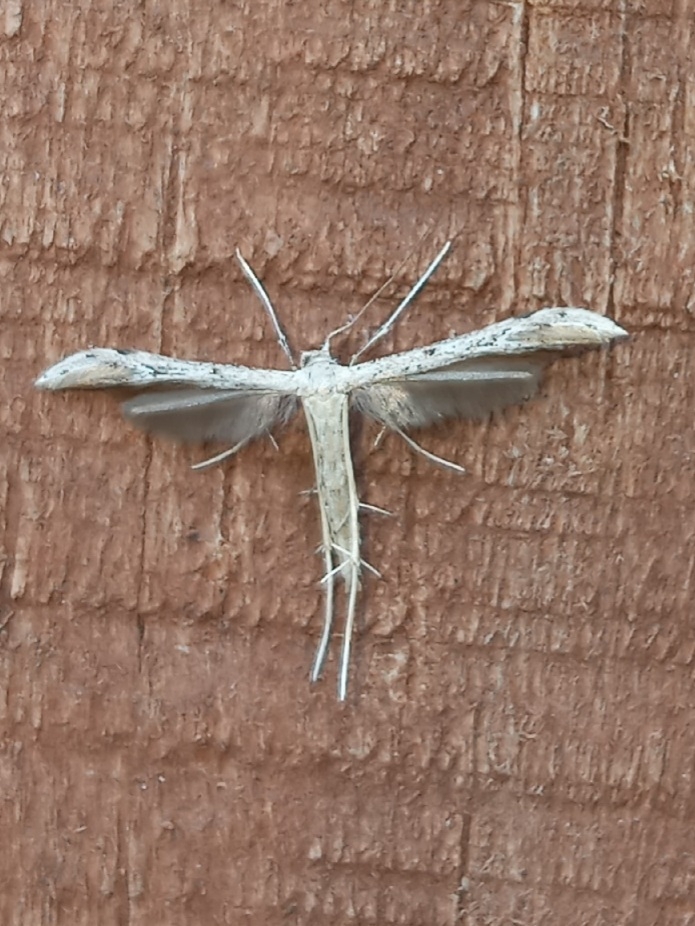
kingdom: Animalia
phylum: Arthropoda
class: Insecta
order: Lepidoptera
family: Pterophoridae
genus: Pselnophorus
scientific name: Pselnophorus belfragei
